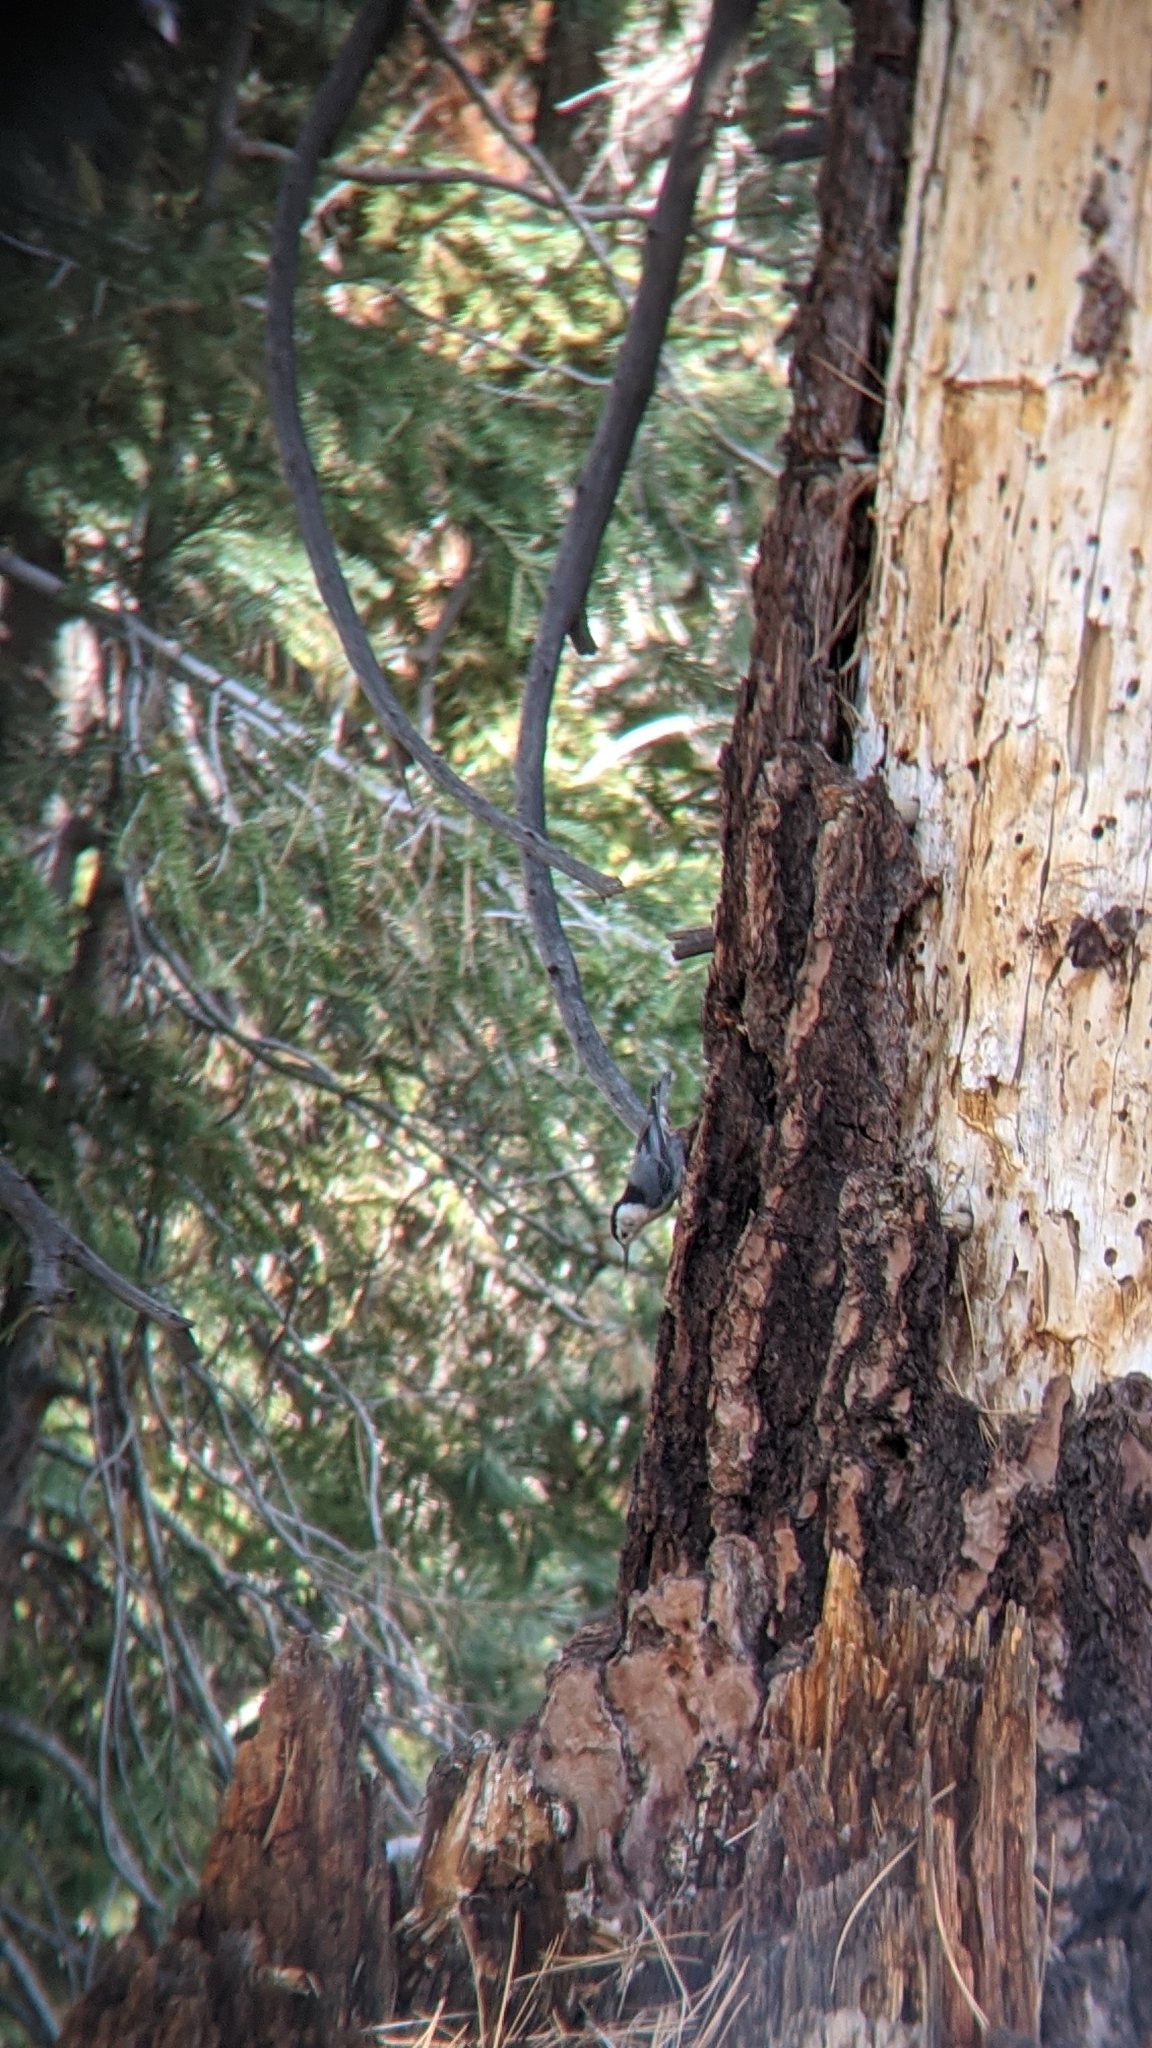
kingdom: Animalia
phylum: Chordata
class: Aves
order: Passeriformes
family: Sittidae
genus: Sitta
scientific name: Sitta carolinensis
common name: White-breasted nuthatch
